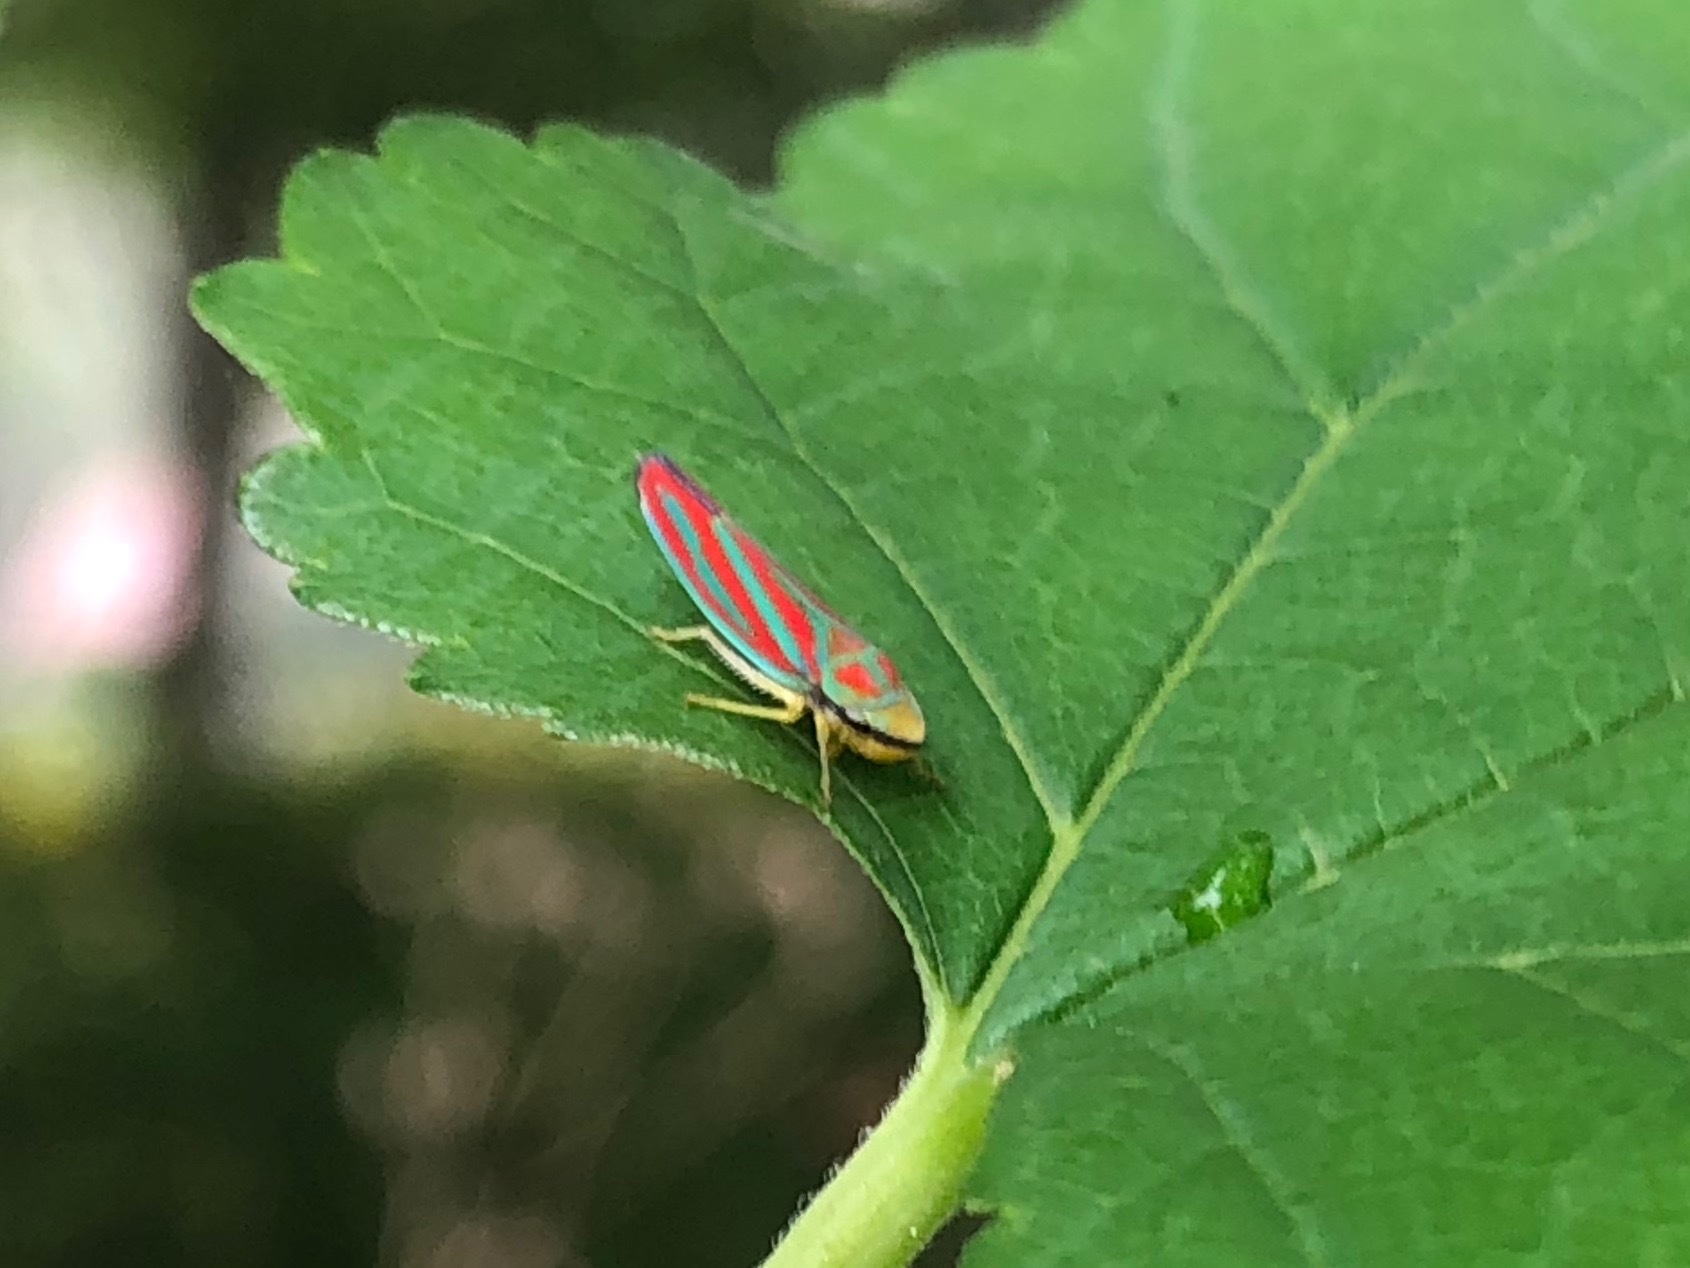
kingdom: Animalia
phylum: Arthropoda
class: Insecta
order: Hemiptera
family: Cicadellidae
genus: Graphocephala
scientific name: Graphocephala coccinea
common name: Candy-striped leafhopper
